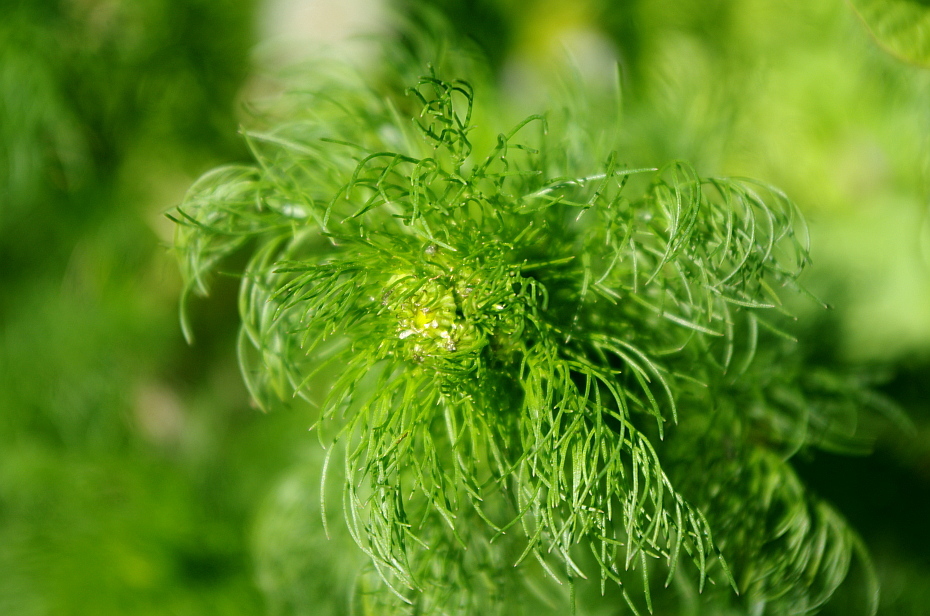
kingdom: Plantae
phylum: Tracheophyta
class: Magnoliopsida
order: Asterales
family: Asteraceae
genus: Tripleurospermum
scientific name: Tripleurospermum inodorum
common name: Scentless mayweed
